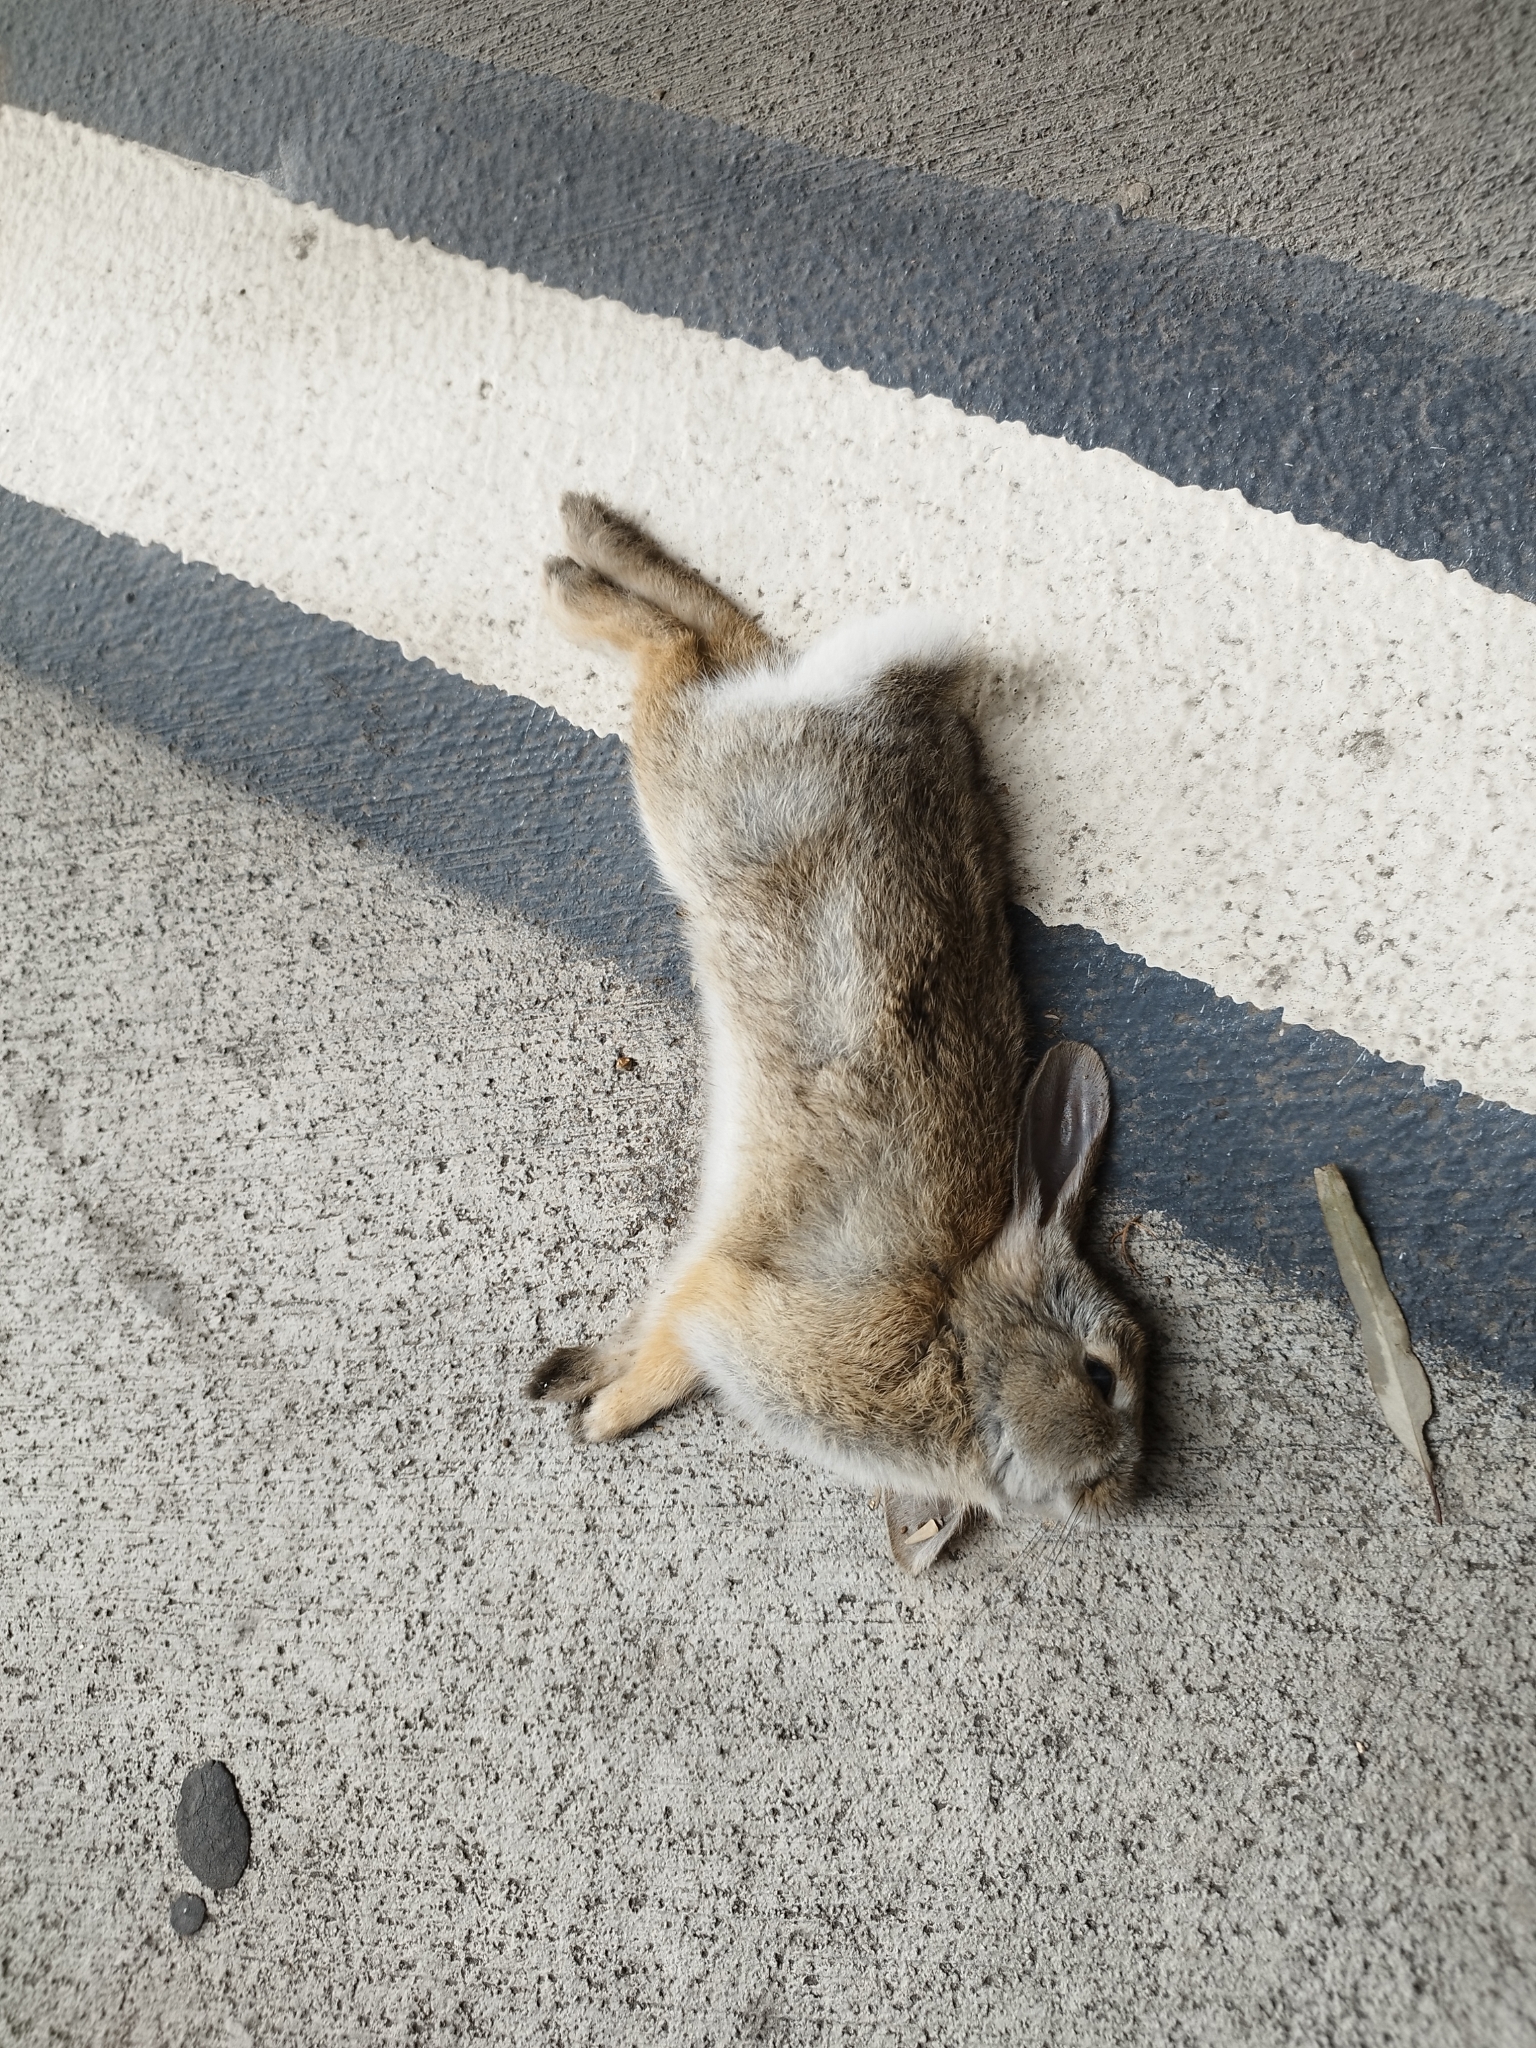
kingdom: Animalia
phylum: Chordata
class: Mammalia
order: Lagomorpha
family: Leporidae
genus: Sylvilagus
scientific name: Sylvilagus audubonii
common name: Desert cottontail
